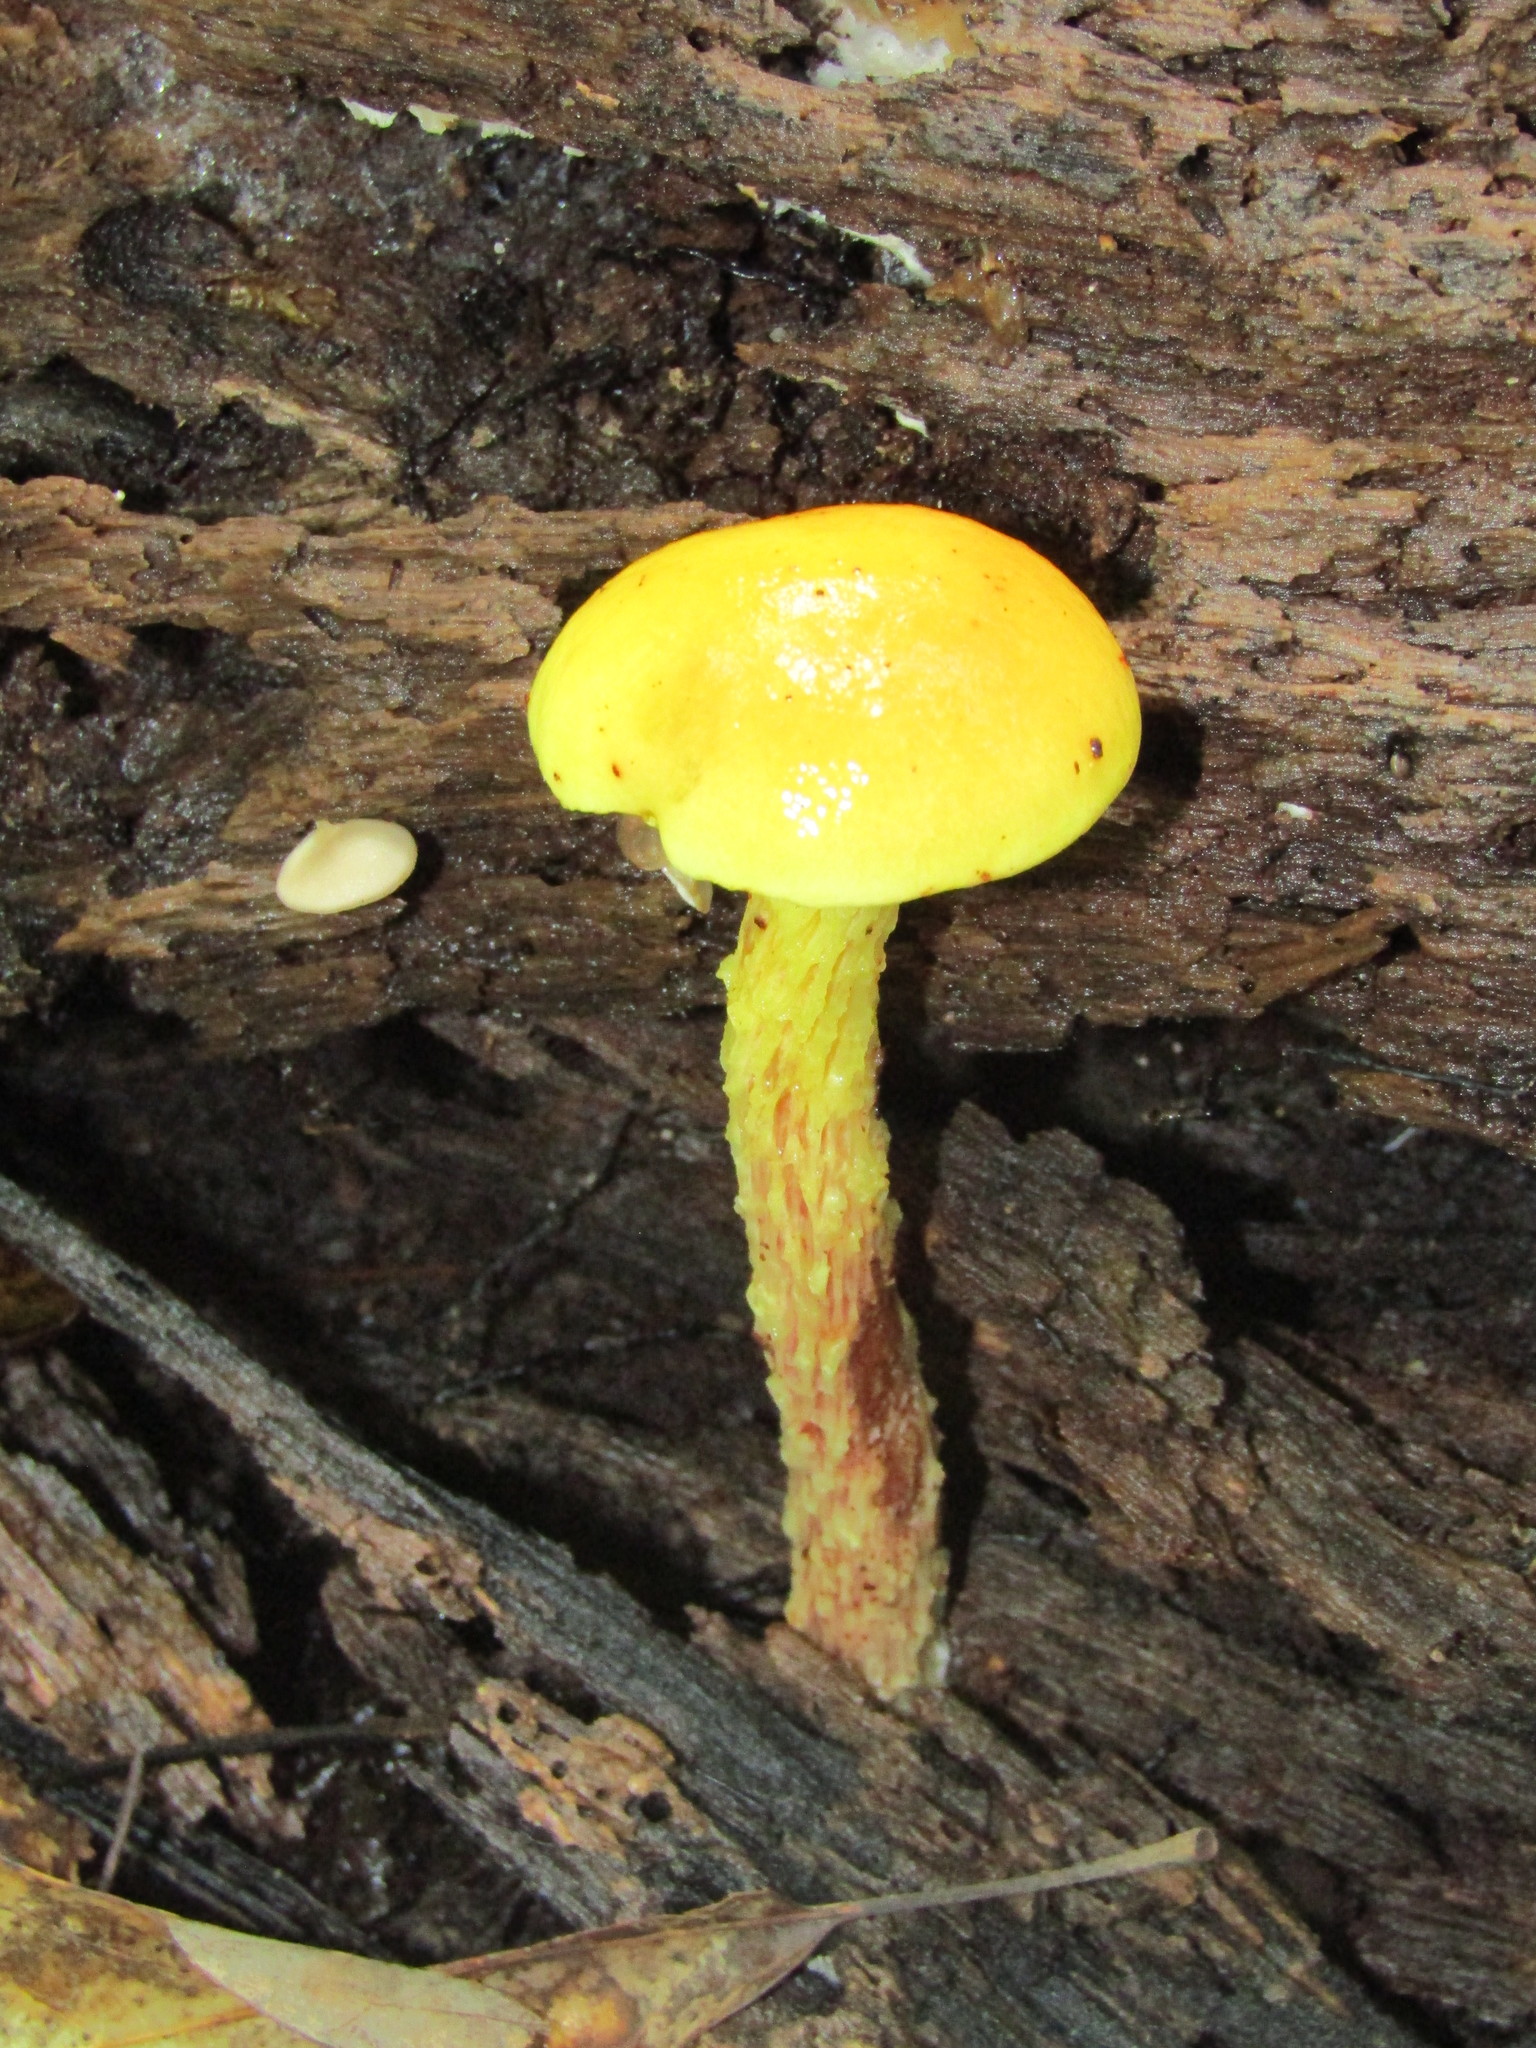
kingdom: Fungi
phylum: Basidiomycota
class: Agaricomycetes
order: Boletales
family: Boletaceae
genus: Aureoboletus
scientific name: Aureoboletus betula
